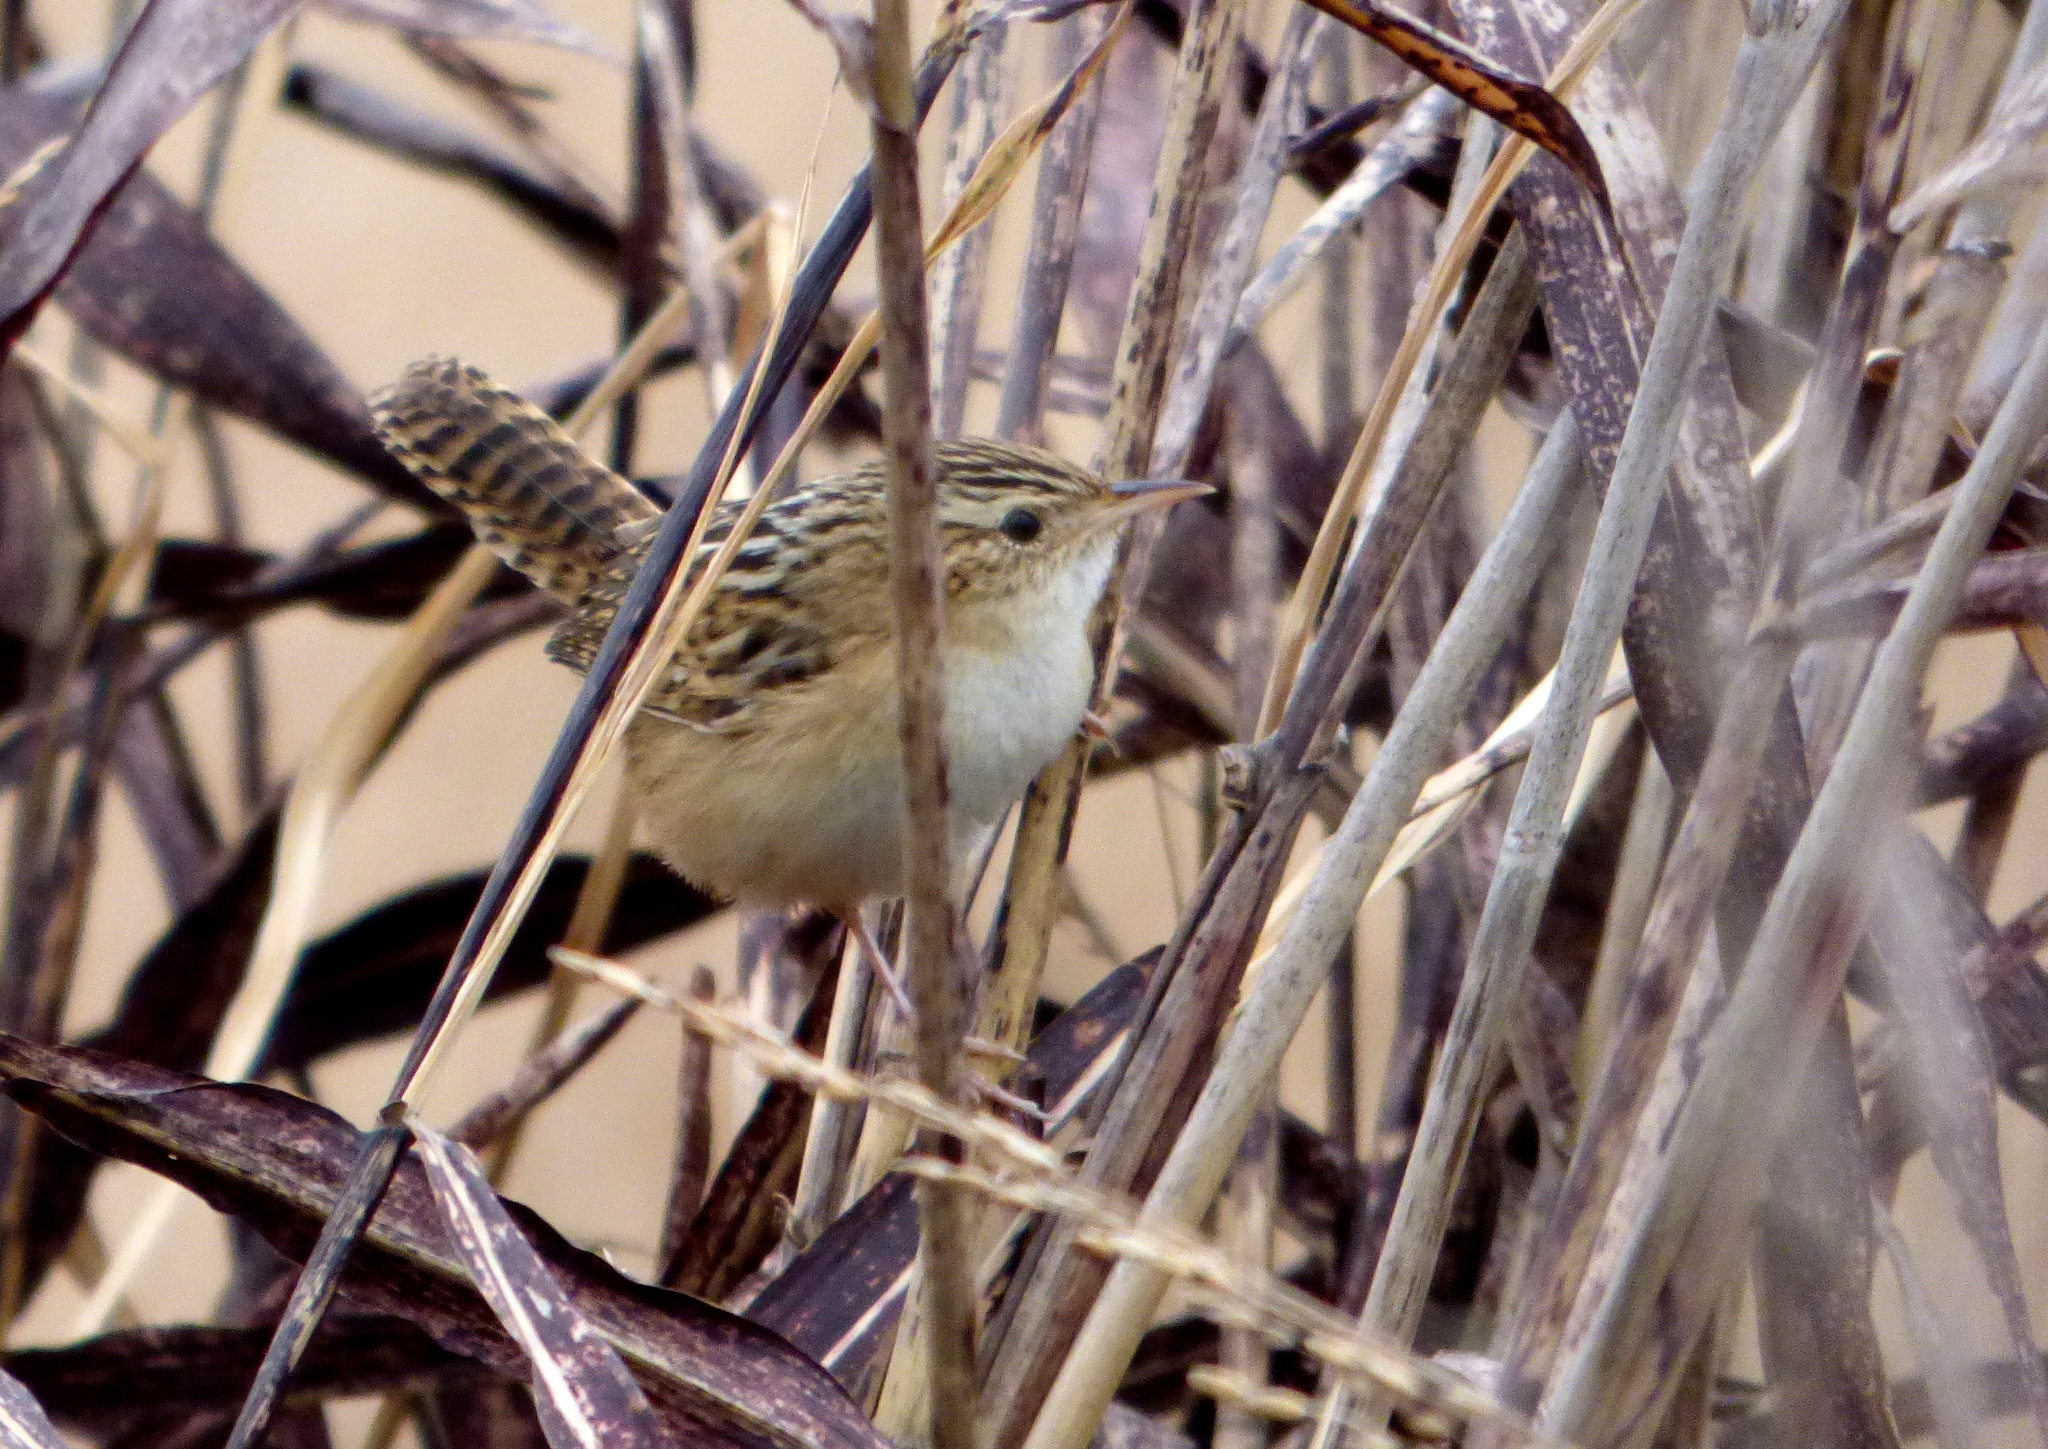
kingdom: Animalia
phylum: Chordata
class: Aves
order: Passeriformes
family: Troglodytidae
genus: Cistothorus
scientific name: Cistothorus platensis
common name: Sedge wren
